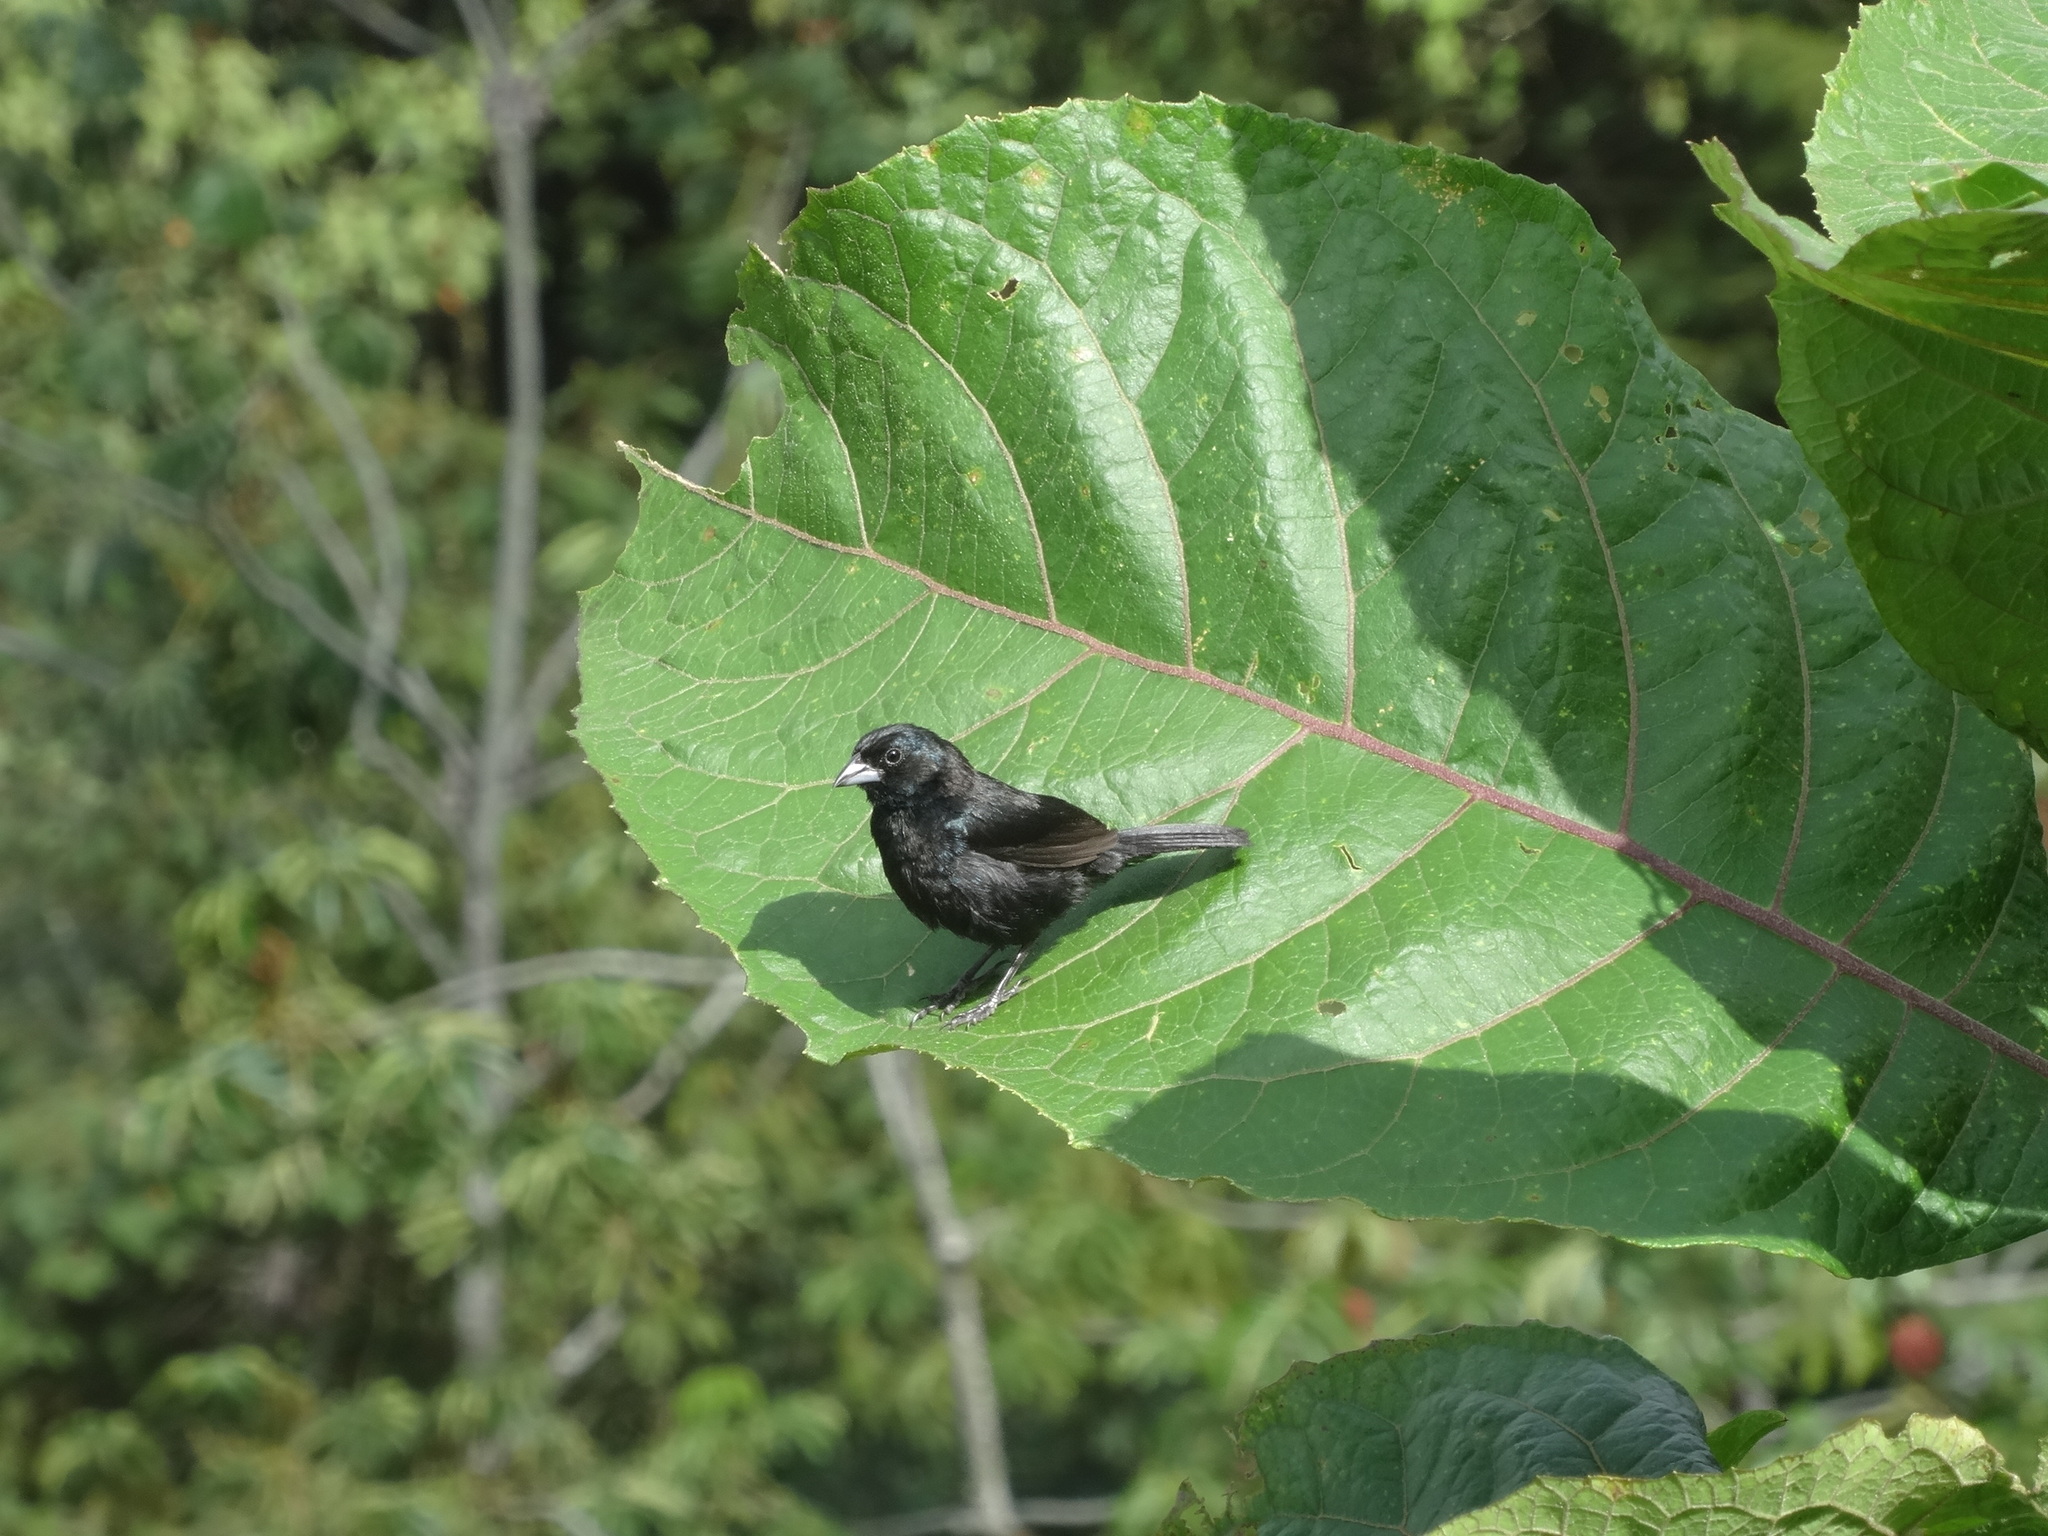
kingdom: Animalia
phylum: Chordata
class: Aves
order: Passeriformes
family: Thraupidae
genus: Volatinia
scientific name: Volatinia jacarina
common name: Blue-black grassquit
